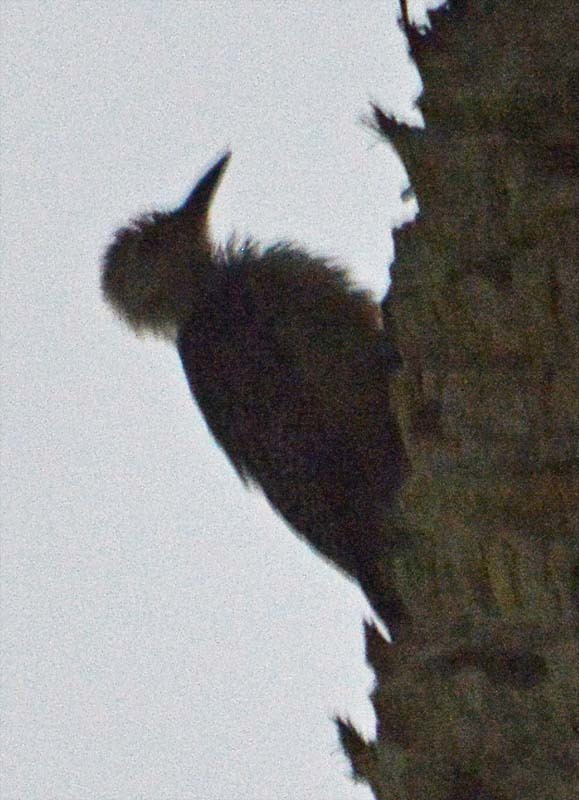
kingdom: Animalia
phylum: Chordata
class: Aves
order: Piciformes
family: Picidae
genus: Melanerpes
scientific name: Melanerpes aurifrons
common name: Golden-fronted woodpecker
